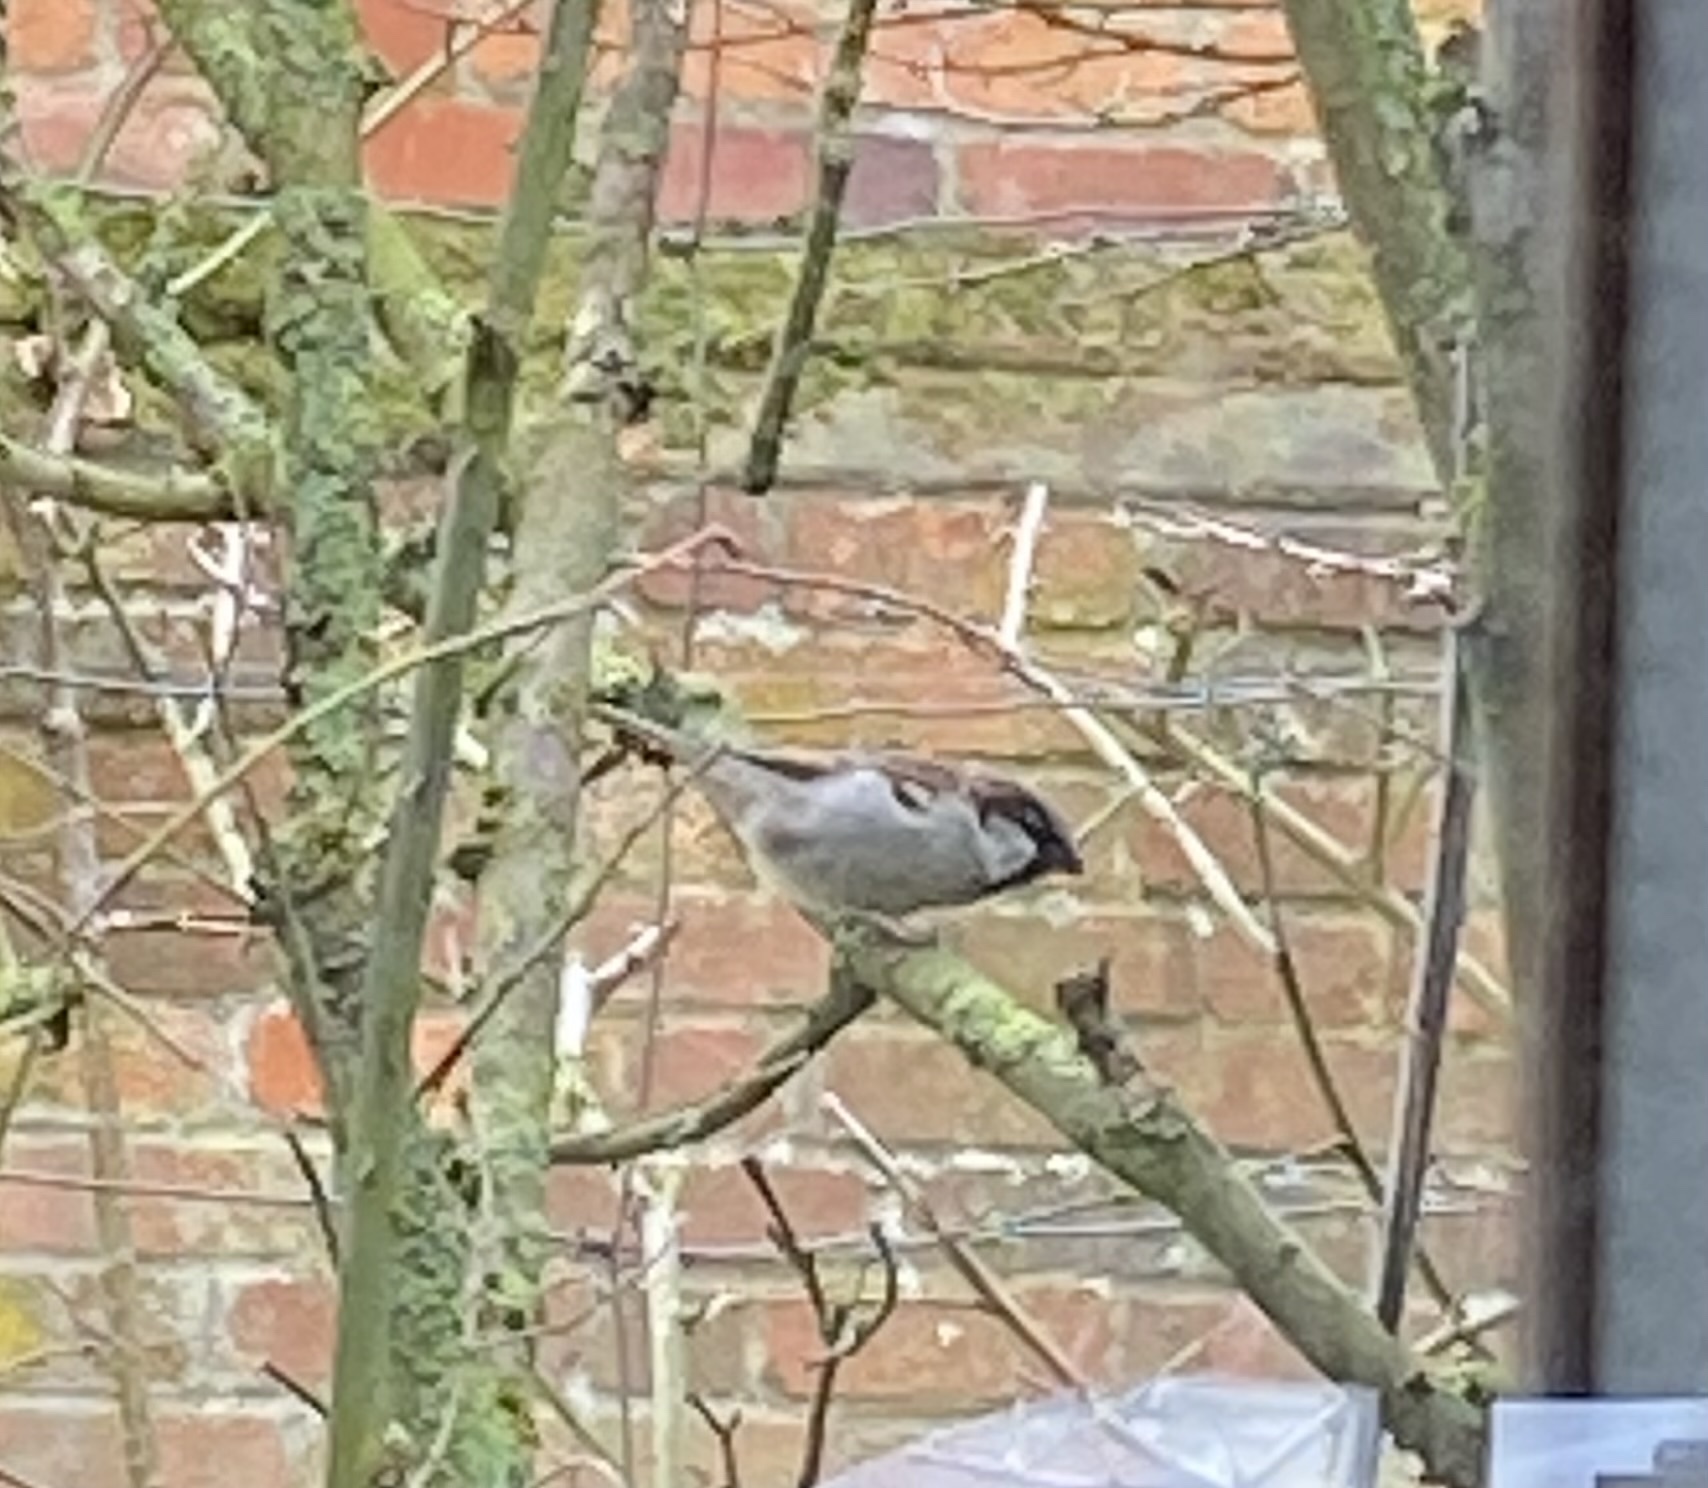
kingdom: Animalia
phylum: Chordata
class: Aves
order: Passeriformes
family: Passeridae
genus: Passer
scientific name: Passer domesticus
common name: House sparrow
